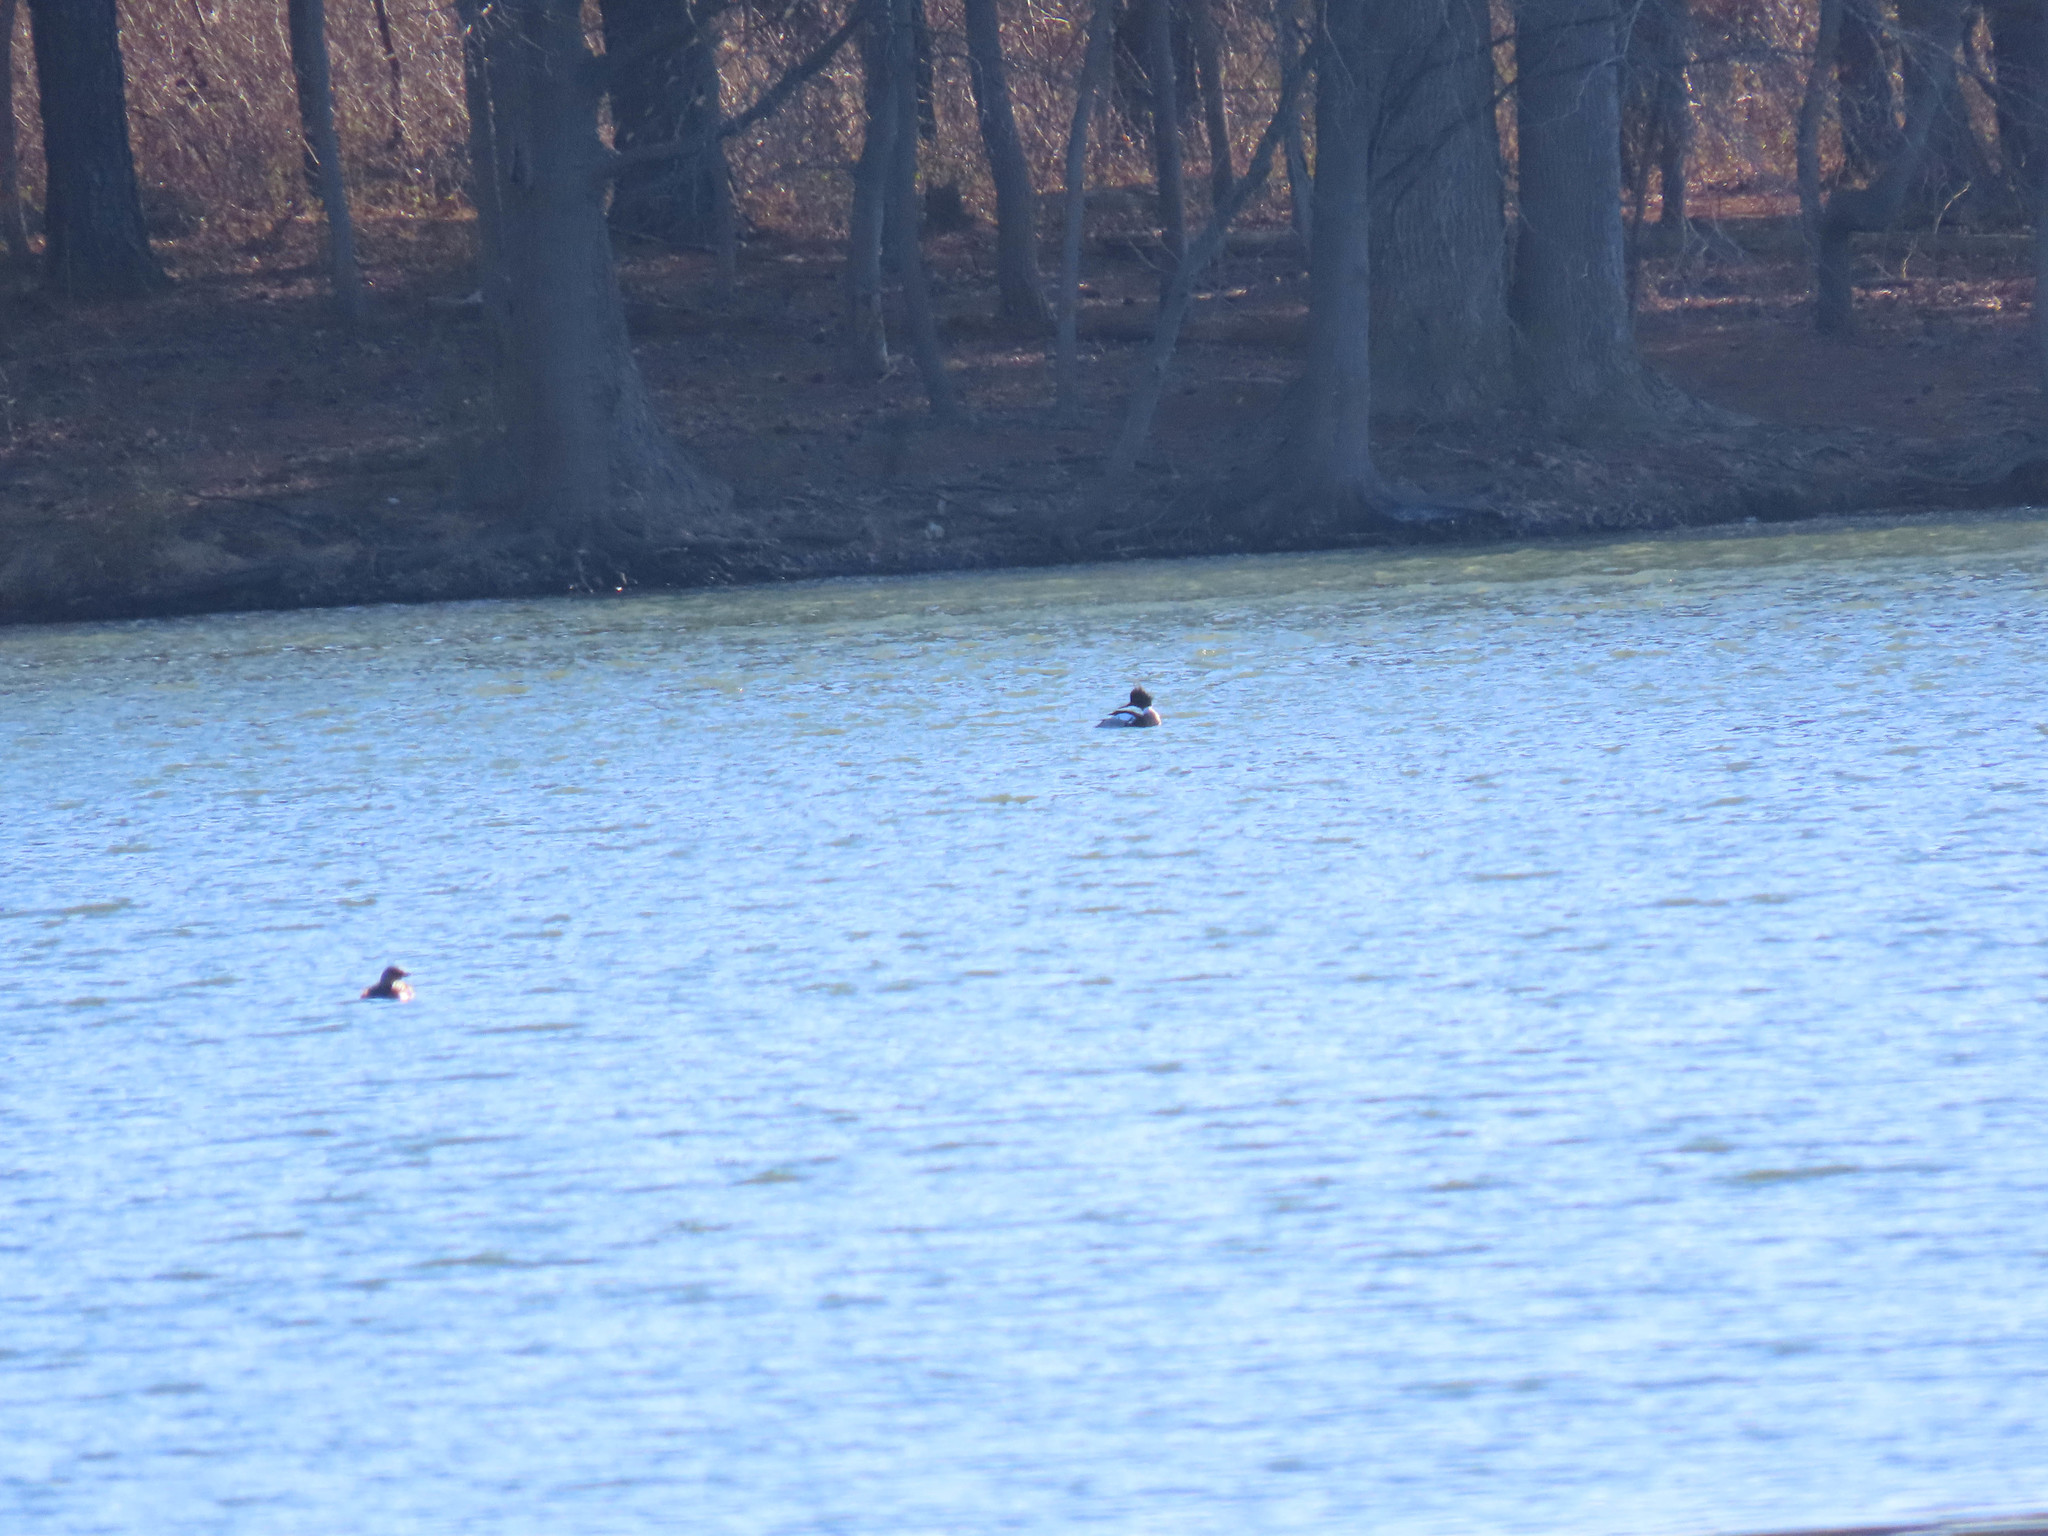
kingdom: Animalia
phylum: Chordata
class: Aves
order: Anseriformes
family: Anatidae
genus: Mergus
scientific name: Mergus serrator
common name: Red-breasted merganser
